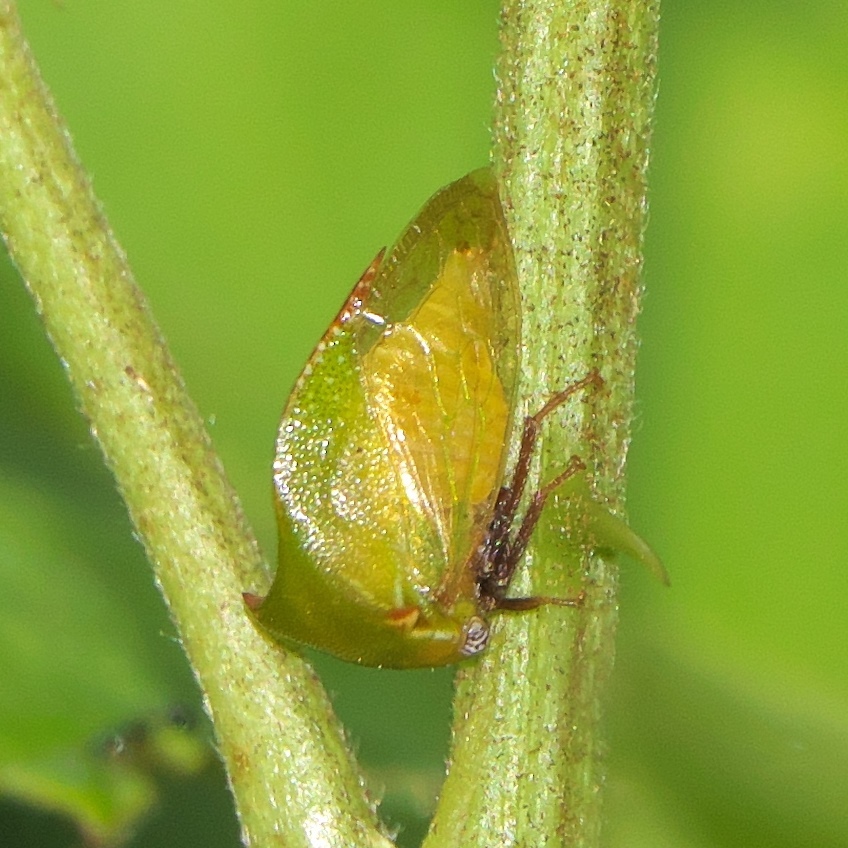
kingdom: Animalia
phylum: Arthropoda
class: Insecta
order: Hemiptera
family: Membracidae
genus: Stictocephala
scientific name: Stictocephala brevitylus
